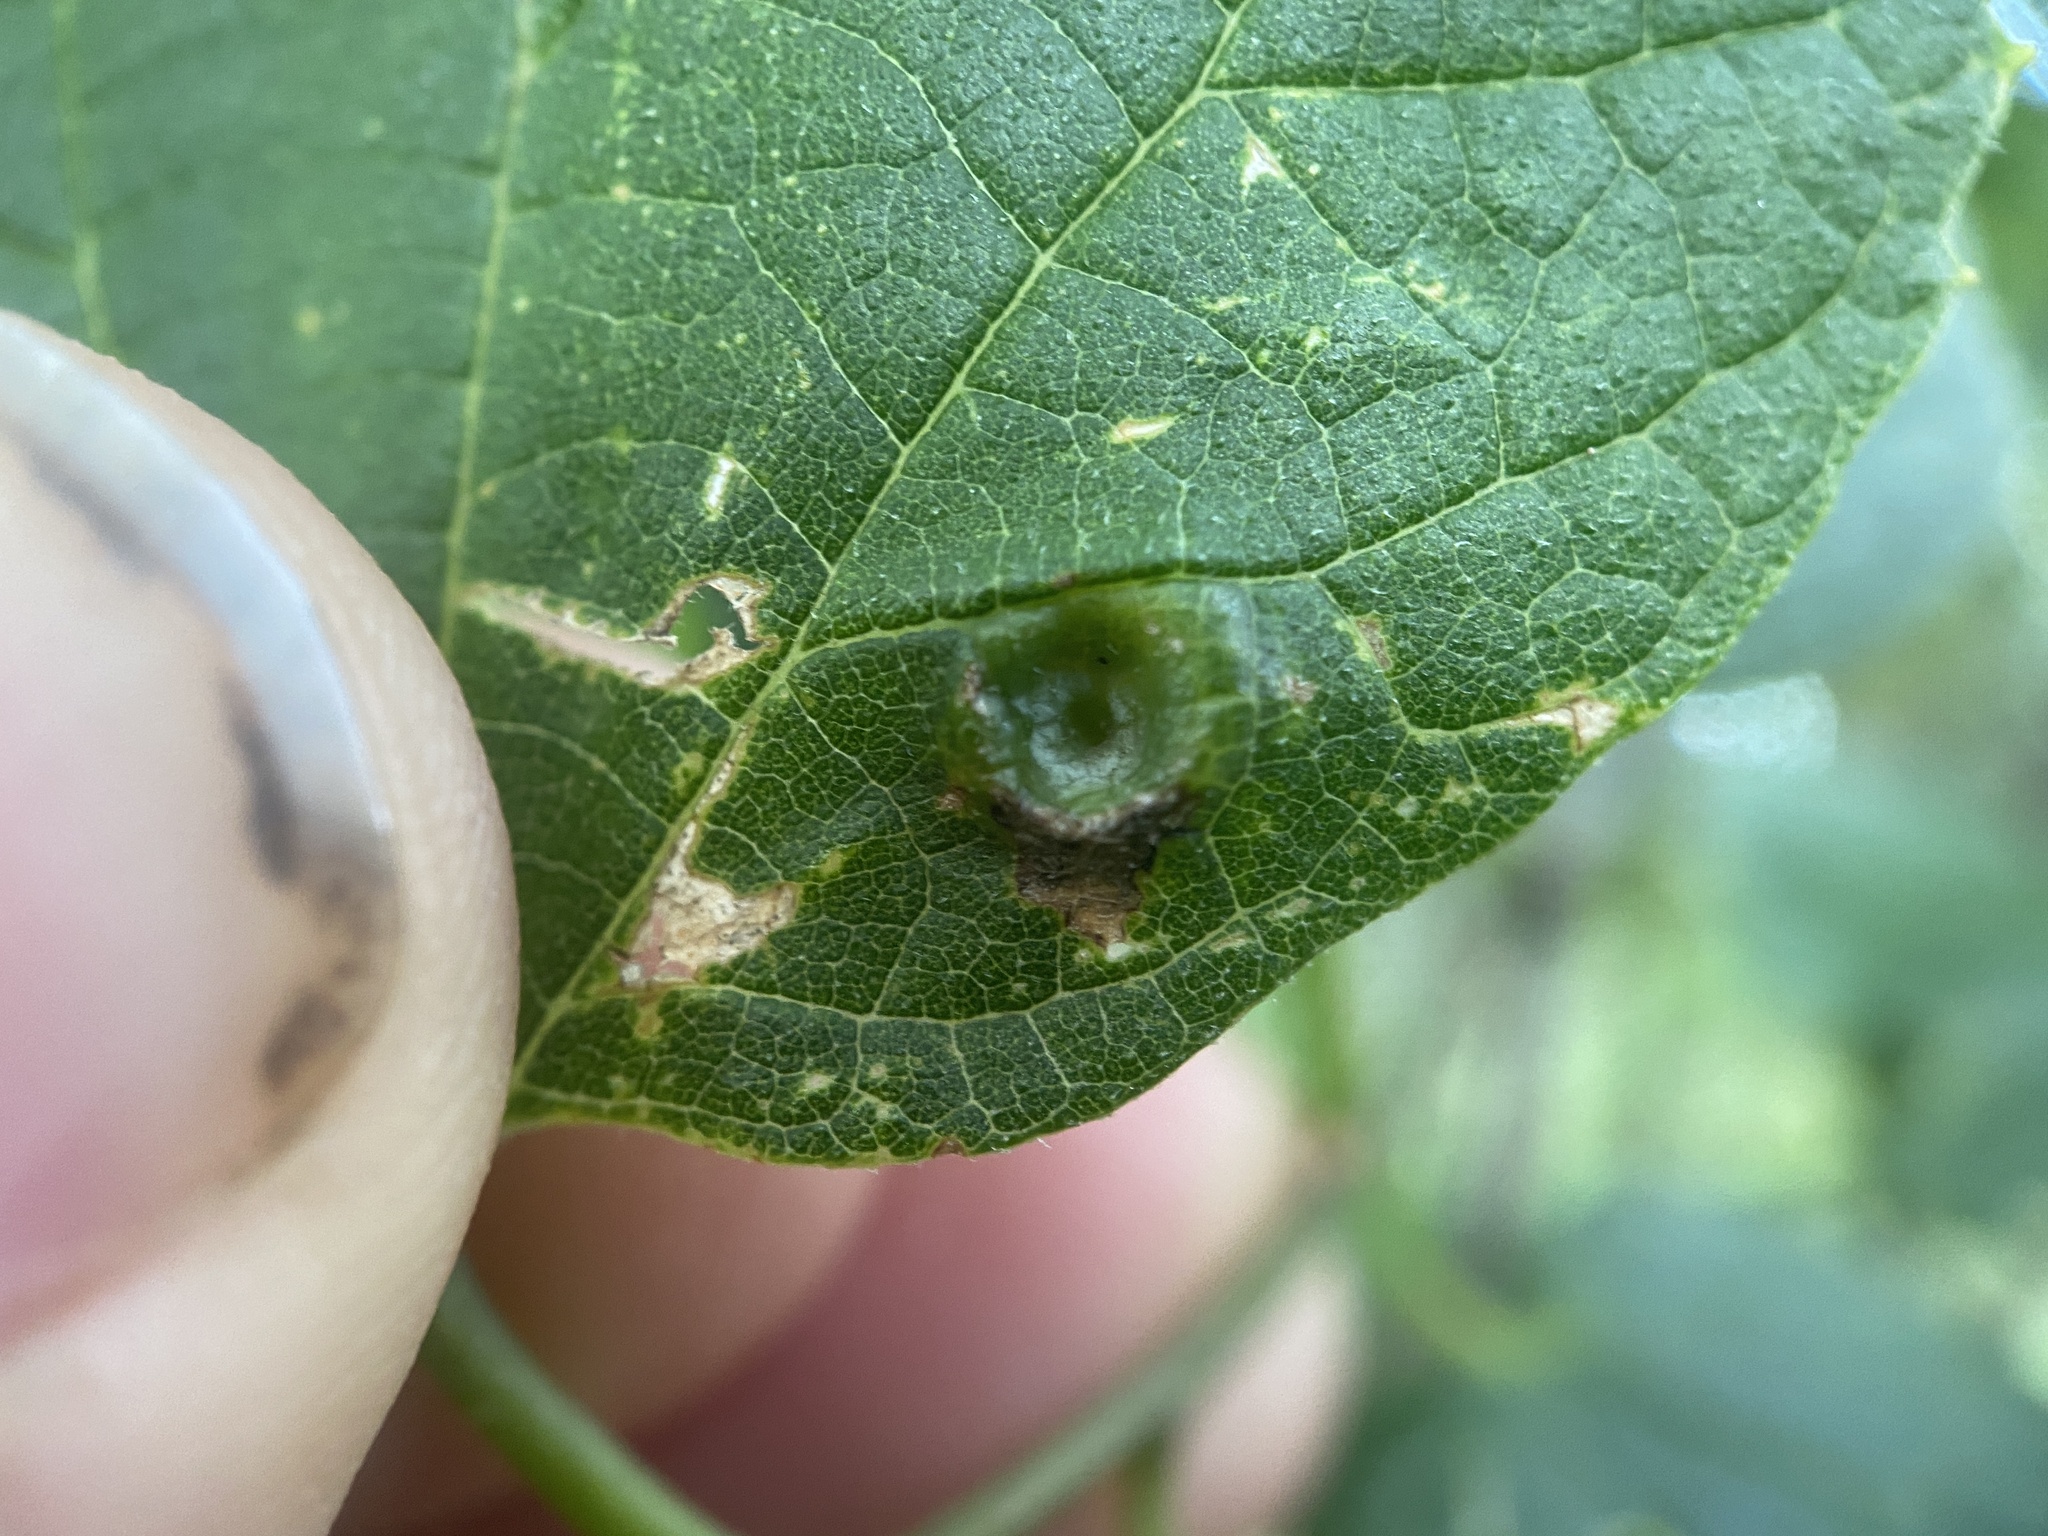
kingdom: Animalia
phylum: Arthropoda
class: Insecta
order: Hemiptera
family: Pentatomidae
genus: Dendrocoris
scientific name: Dendrocoris humeralis
